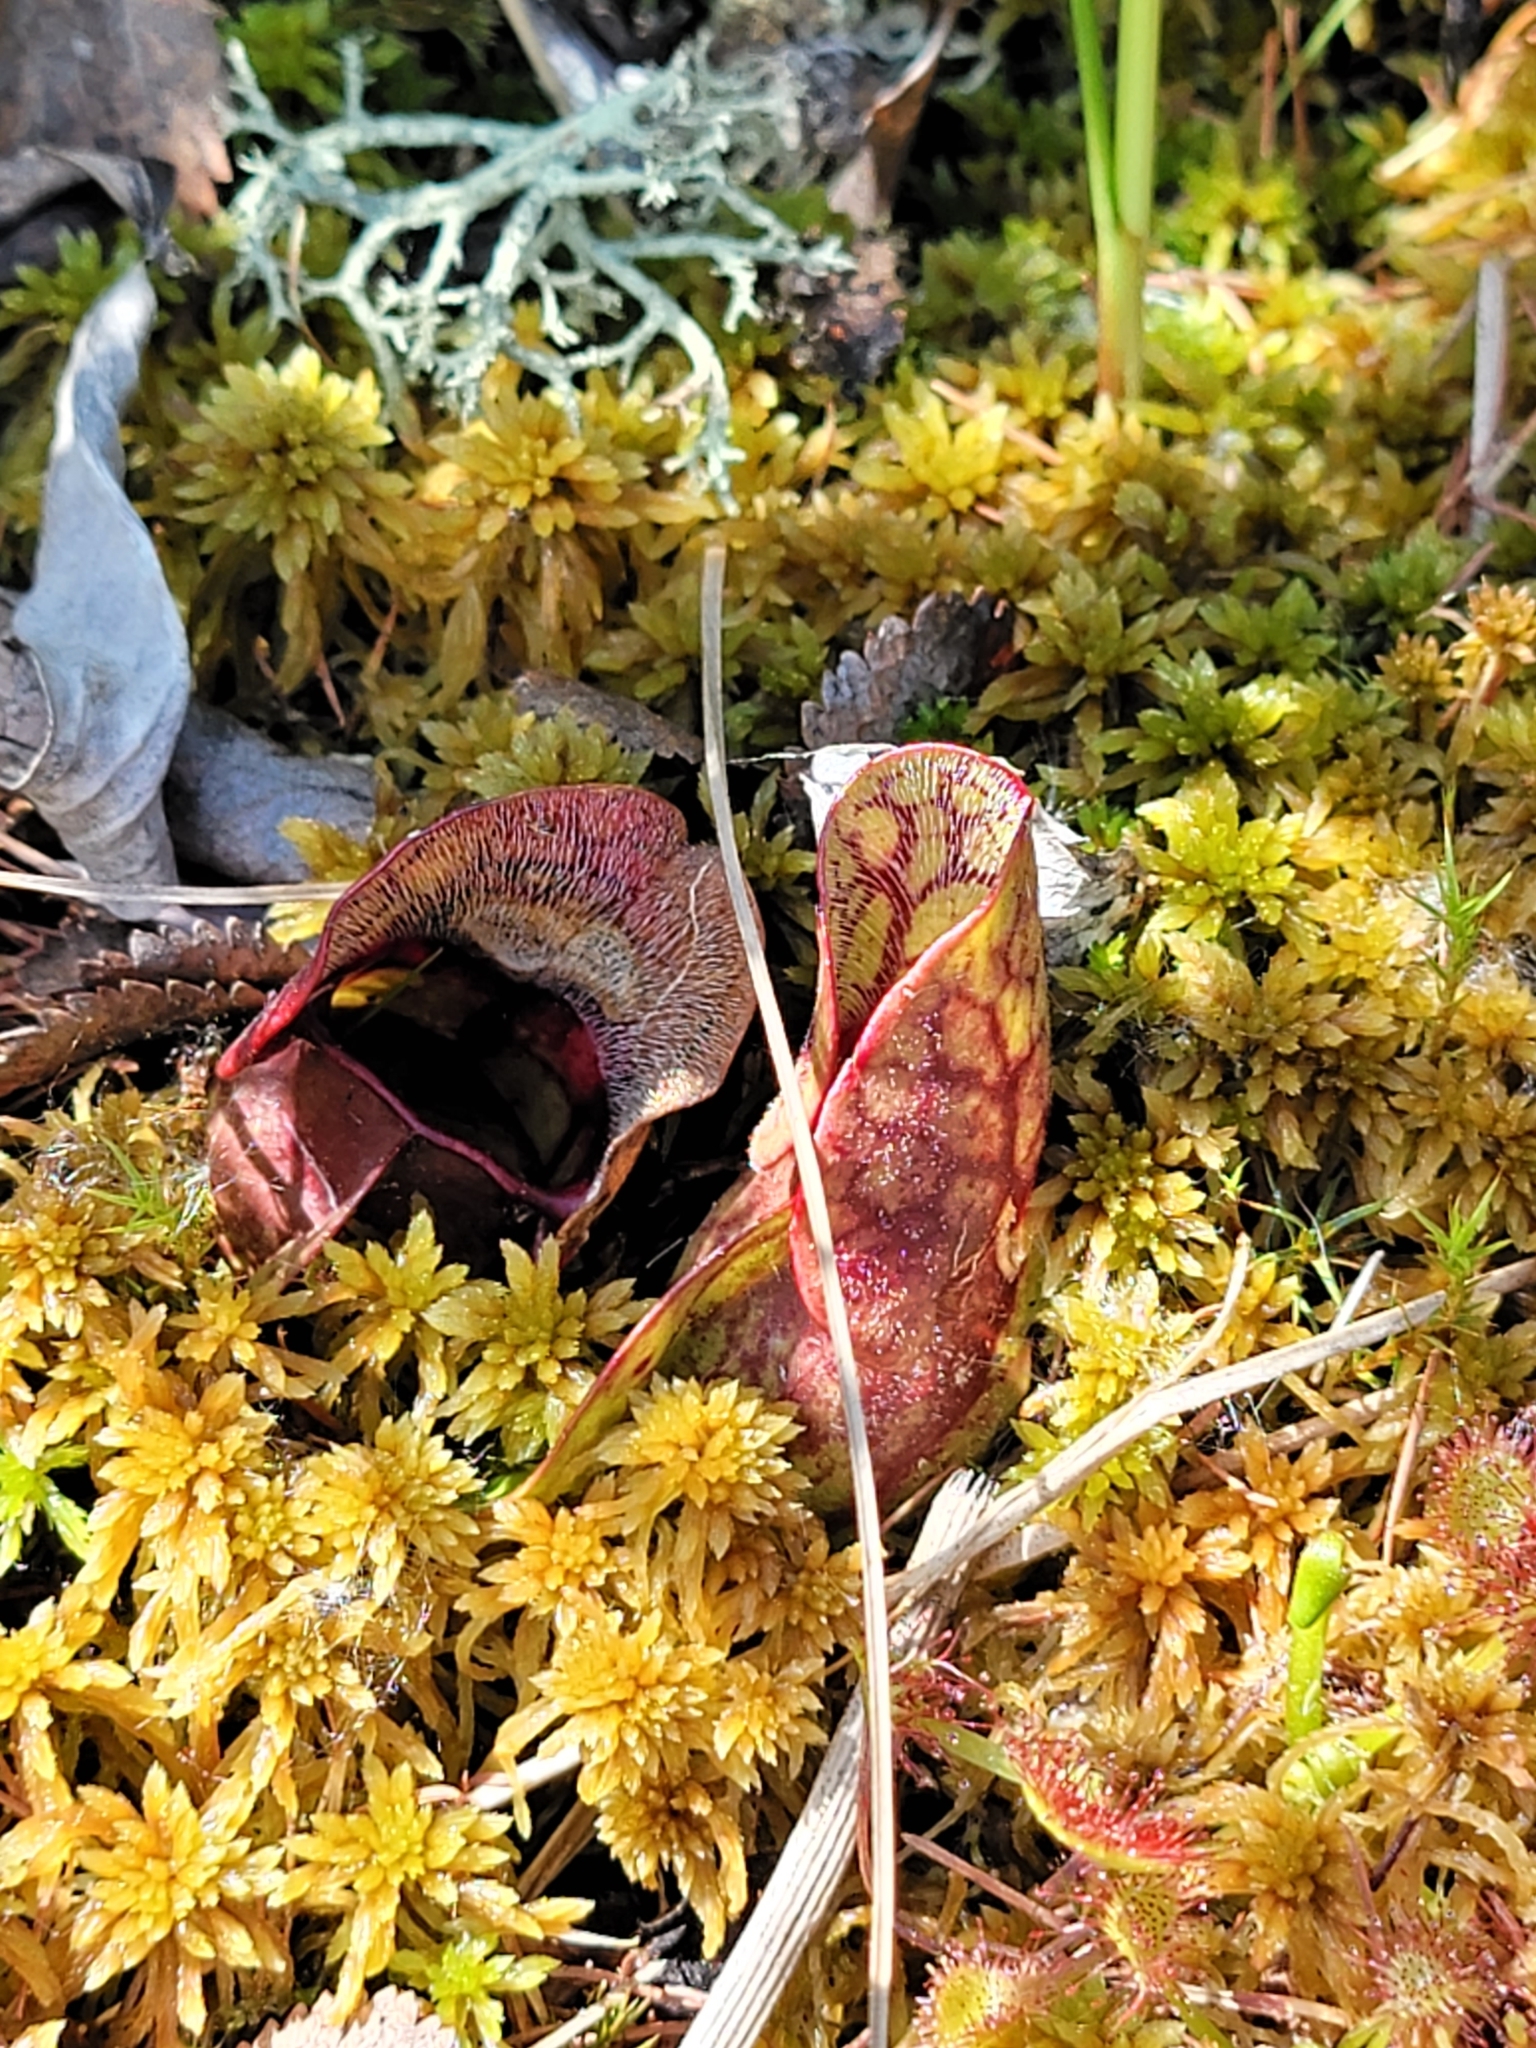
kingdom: Plantae
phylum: Tracheophyta
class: Magnoliopsida
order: Ericales
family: Sarraceniaceae
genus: Sarracenia
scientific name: Sarracenia purpurea
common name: Pitcherplant
